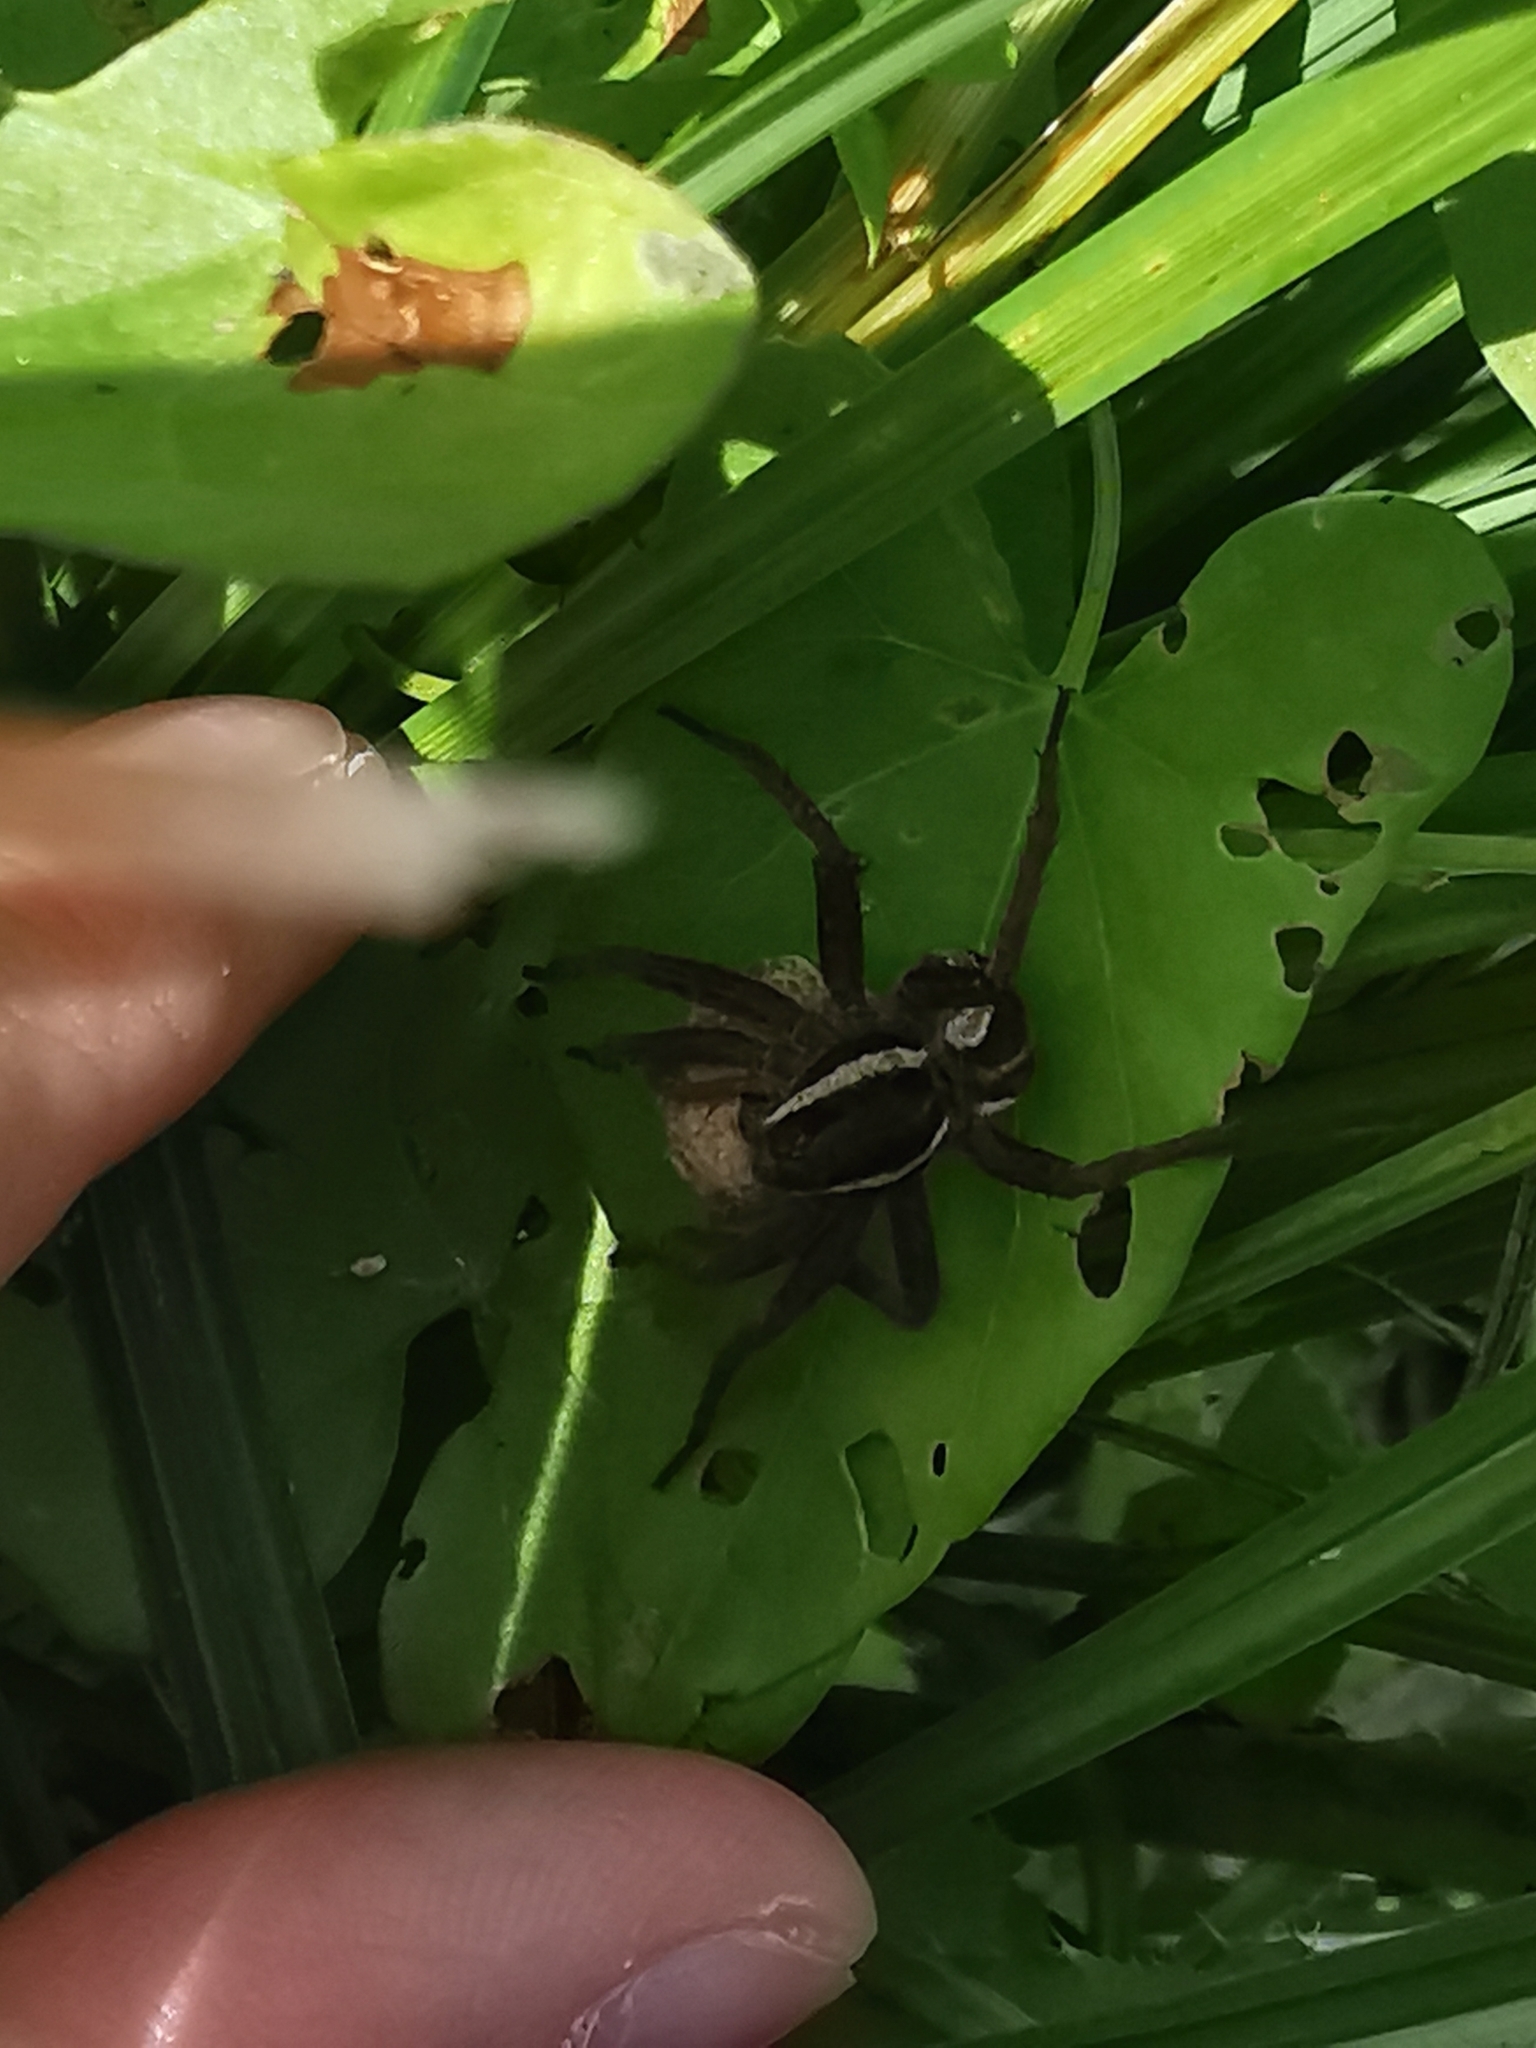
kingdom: Animalia
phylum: Arthropoda
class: Arachnida
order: Araneae
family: Pisauridae
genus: Dolomedes
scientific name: Dolomedes
